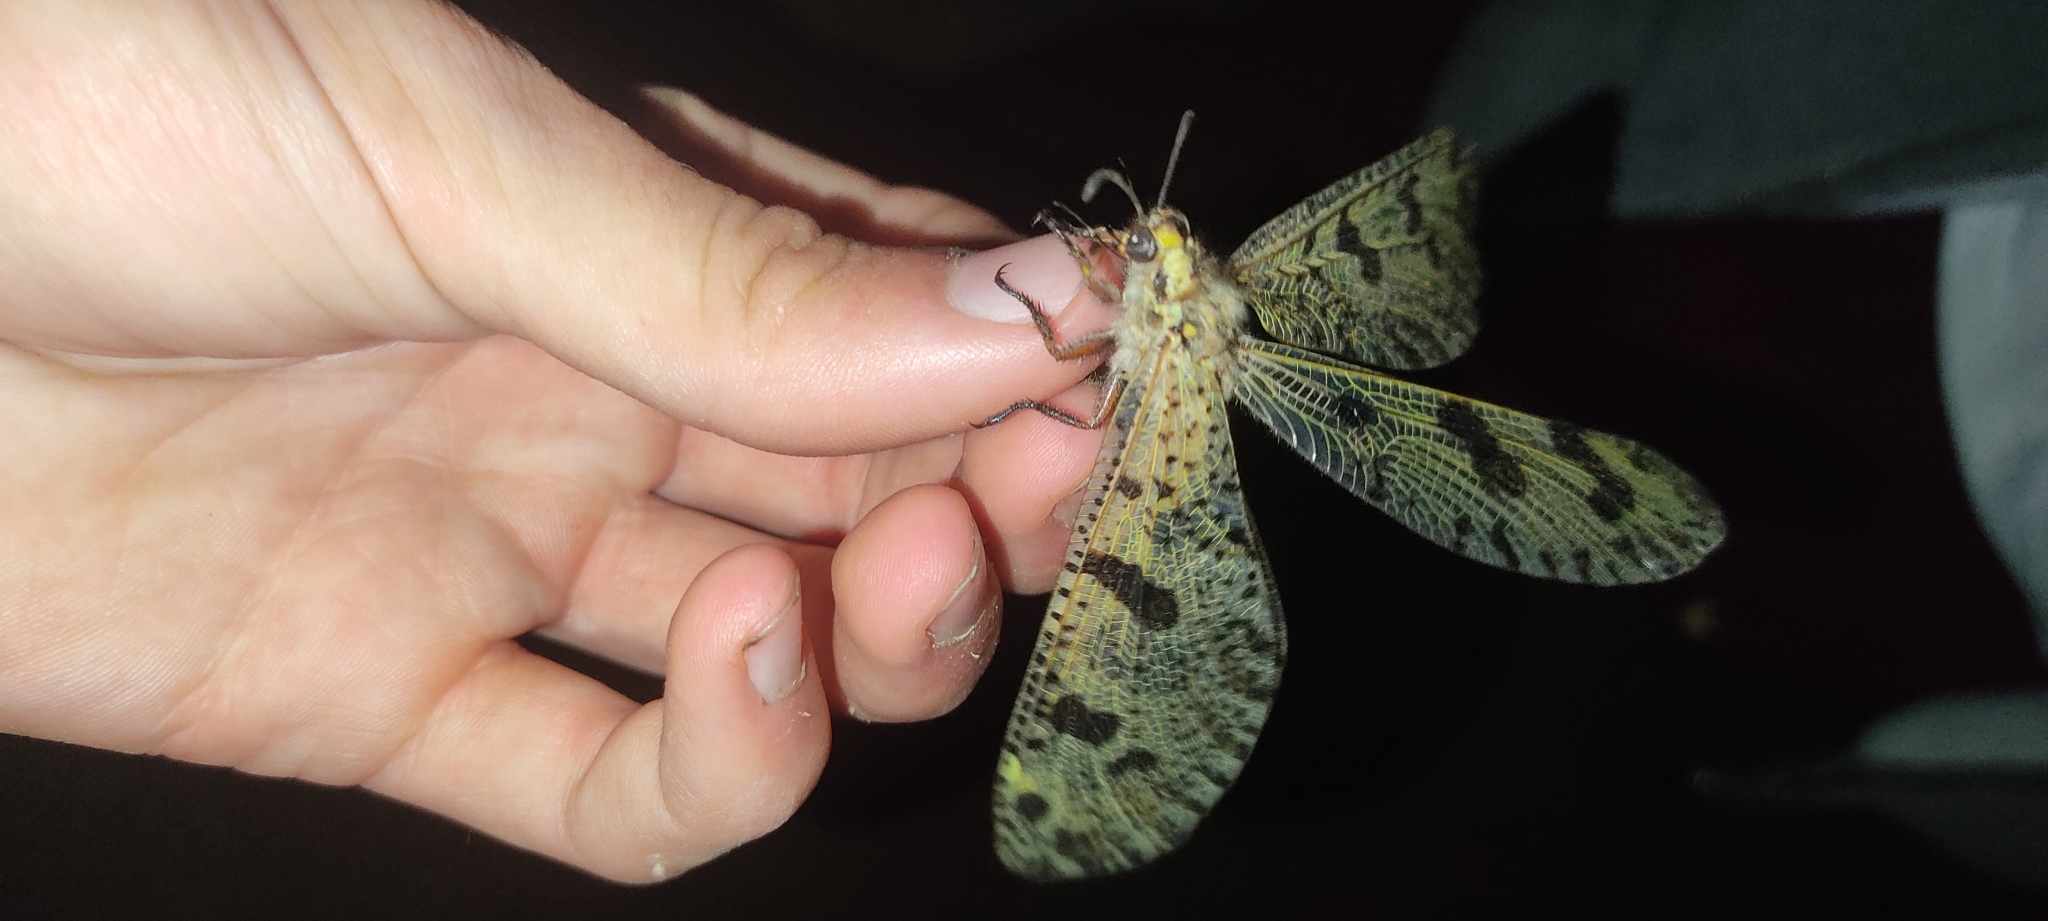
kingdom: Animalia
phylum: Arthropoda
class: Insecta
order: Neuroptera
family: Myrmeleontidae
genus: Palpares
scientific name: Palpares libelluloides
